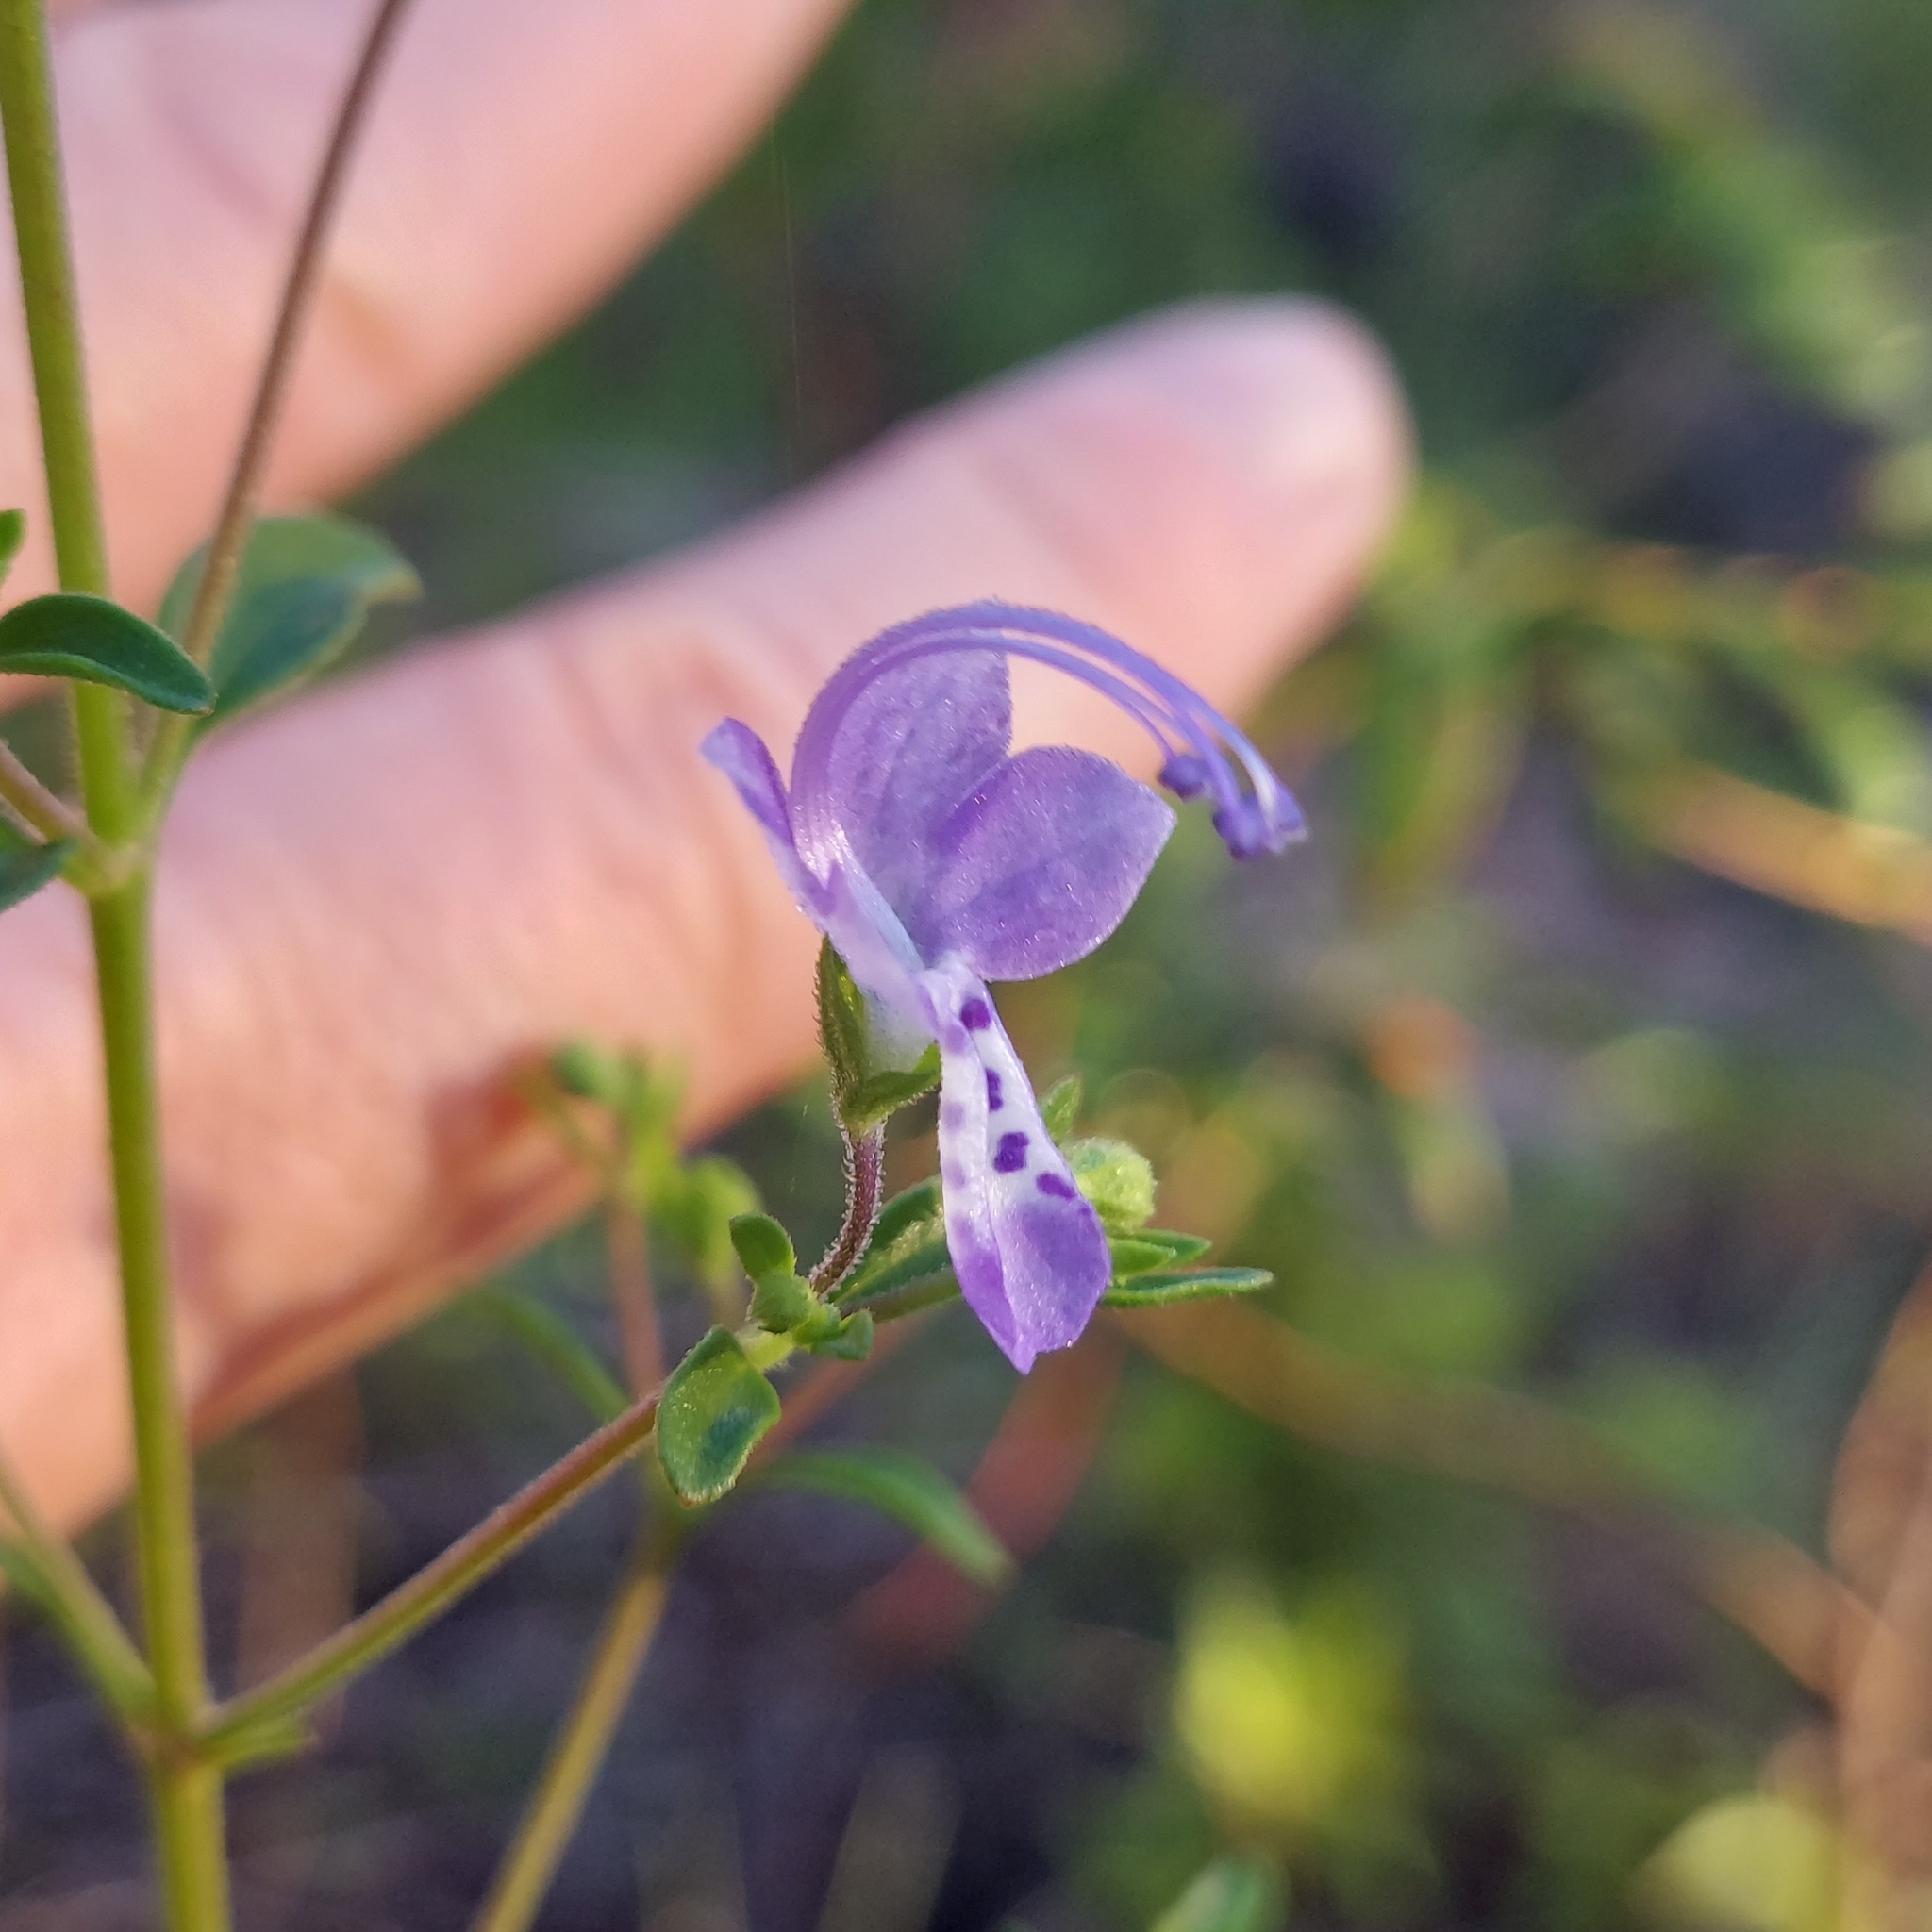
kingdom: Plantae
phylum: Tracheophyta
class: Magnoliopsida
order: Lamiales
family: Lamiaceae
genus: Trichostema
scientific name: Trichostema dichotomum
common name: Bastard pennyroyal
